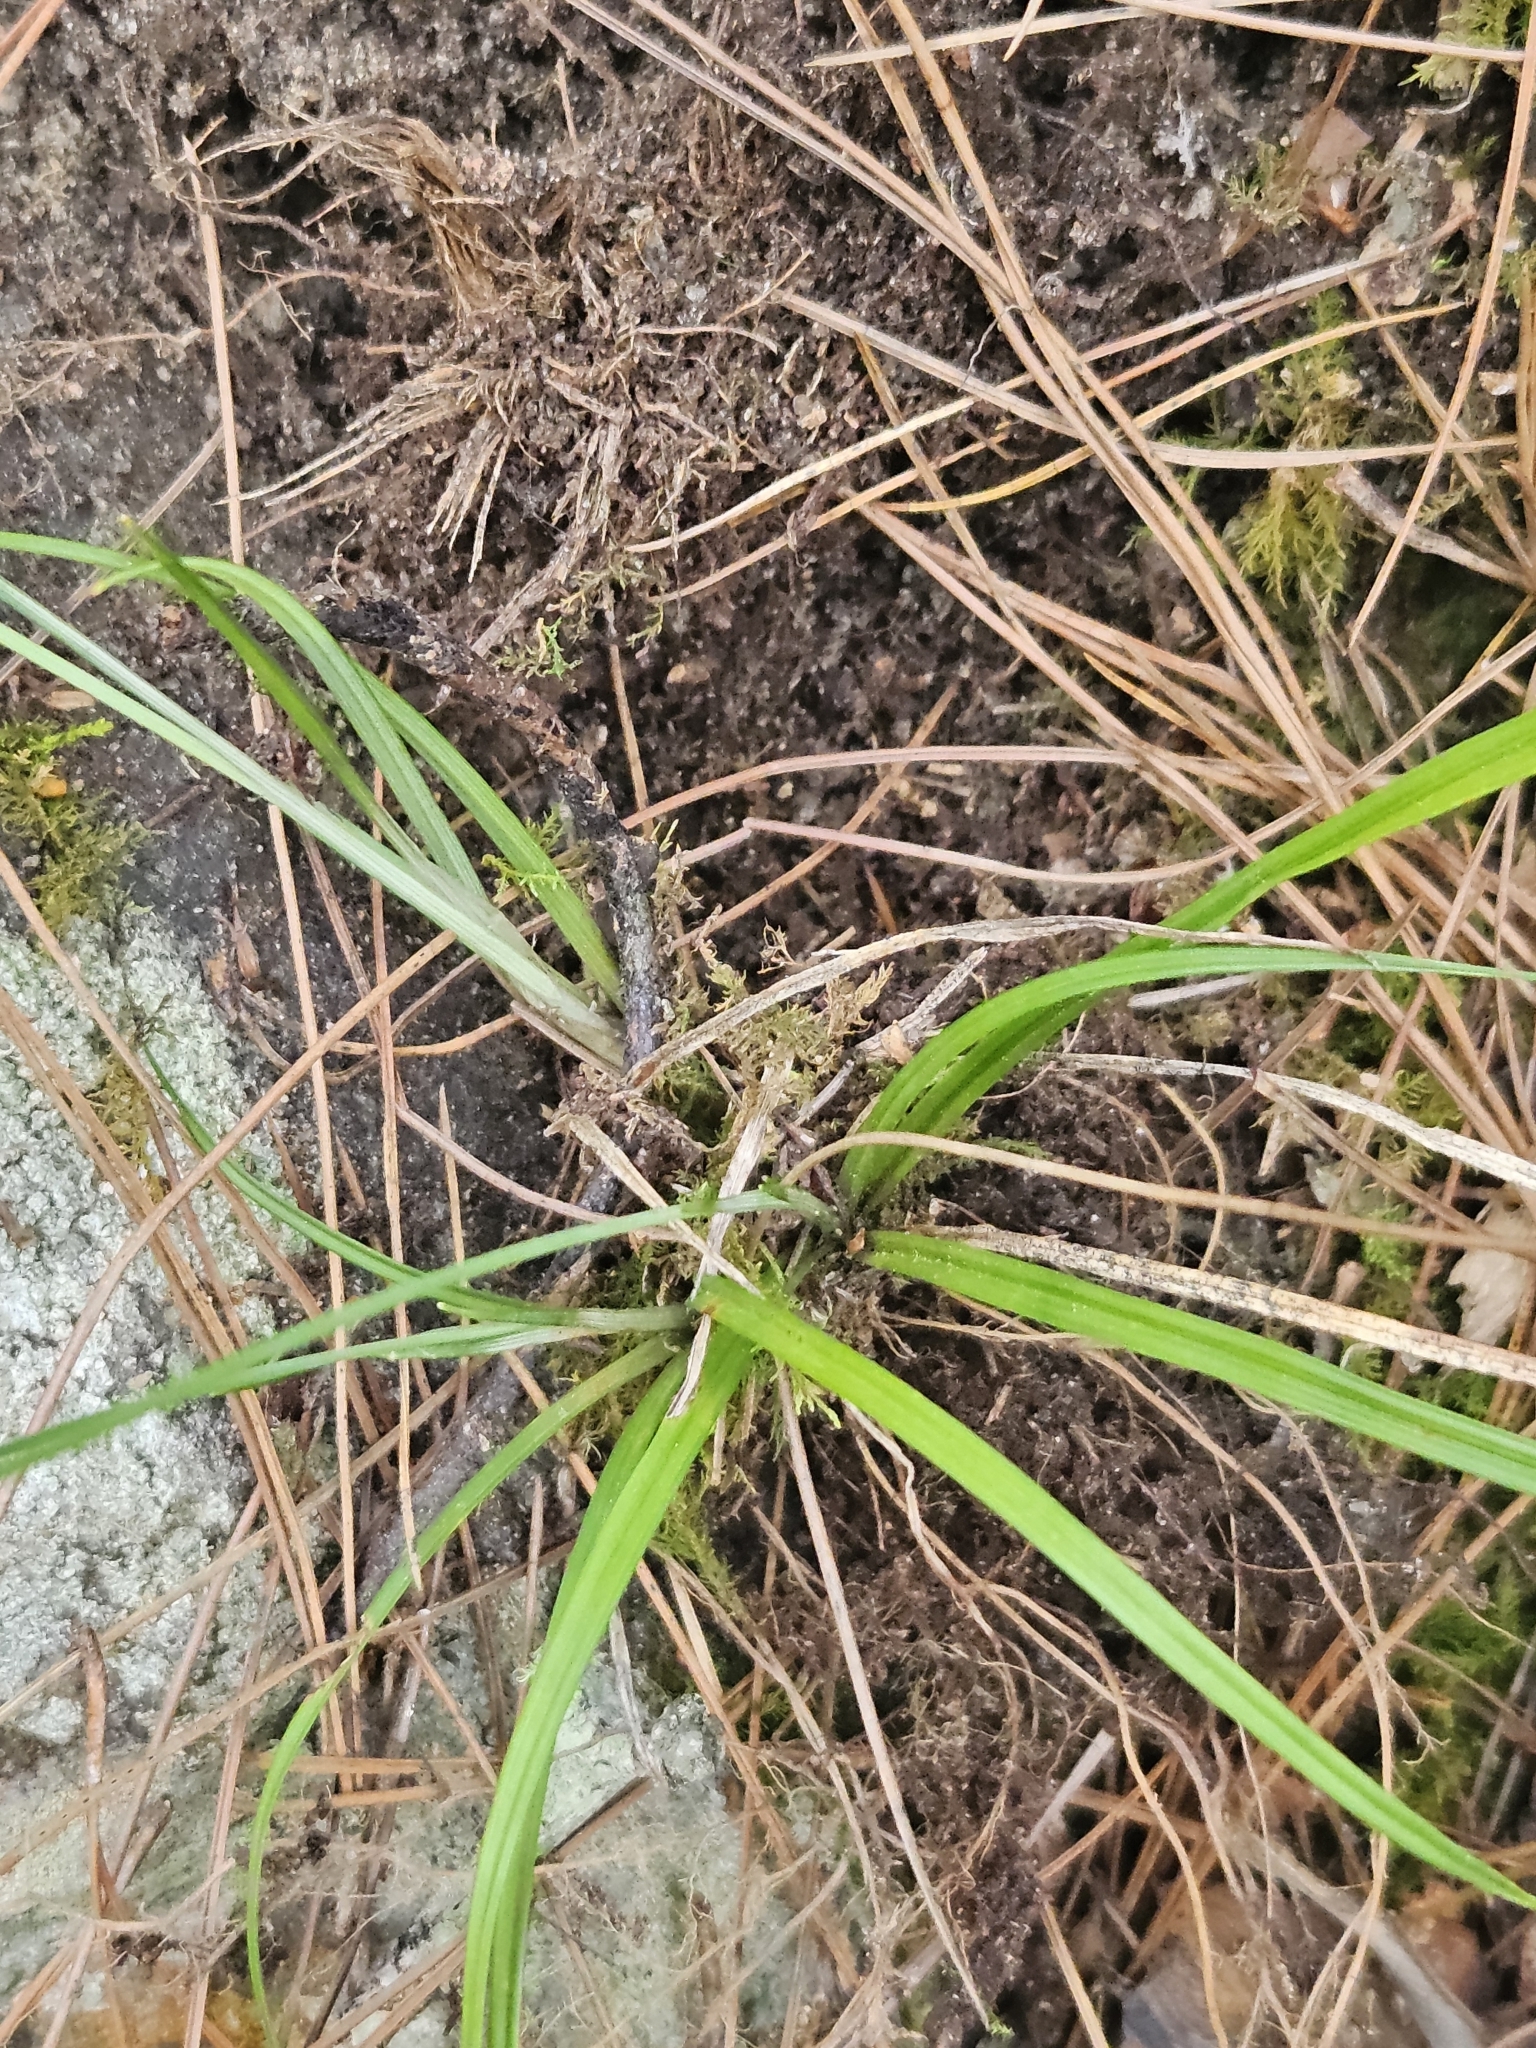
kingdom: Plantae
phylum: Tracheophyta
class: Liliopsida
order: Poales
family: Cyperaceae
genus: Carex
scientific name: Carex manca
